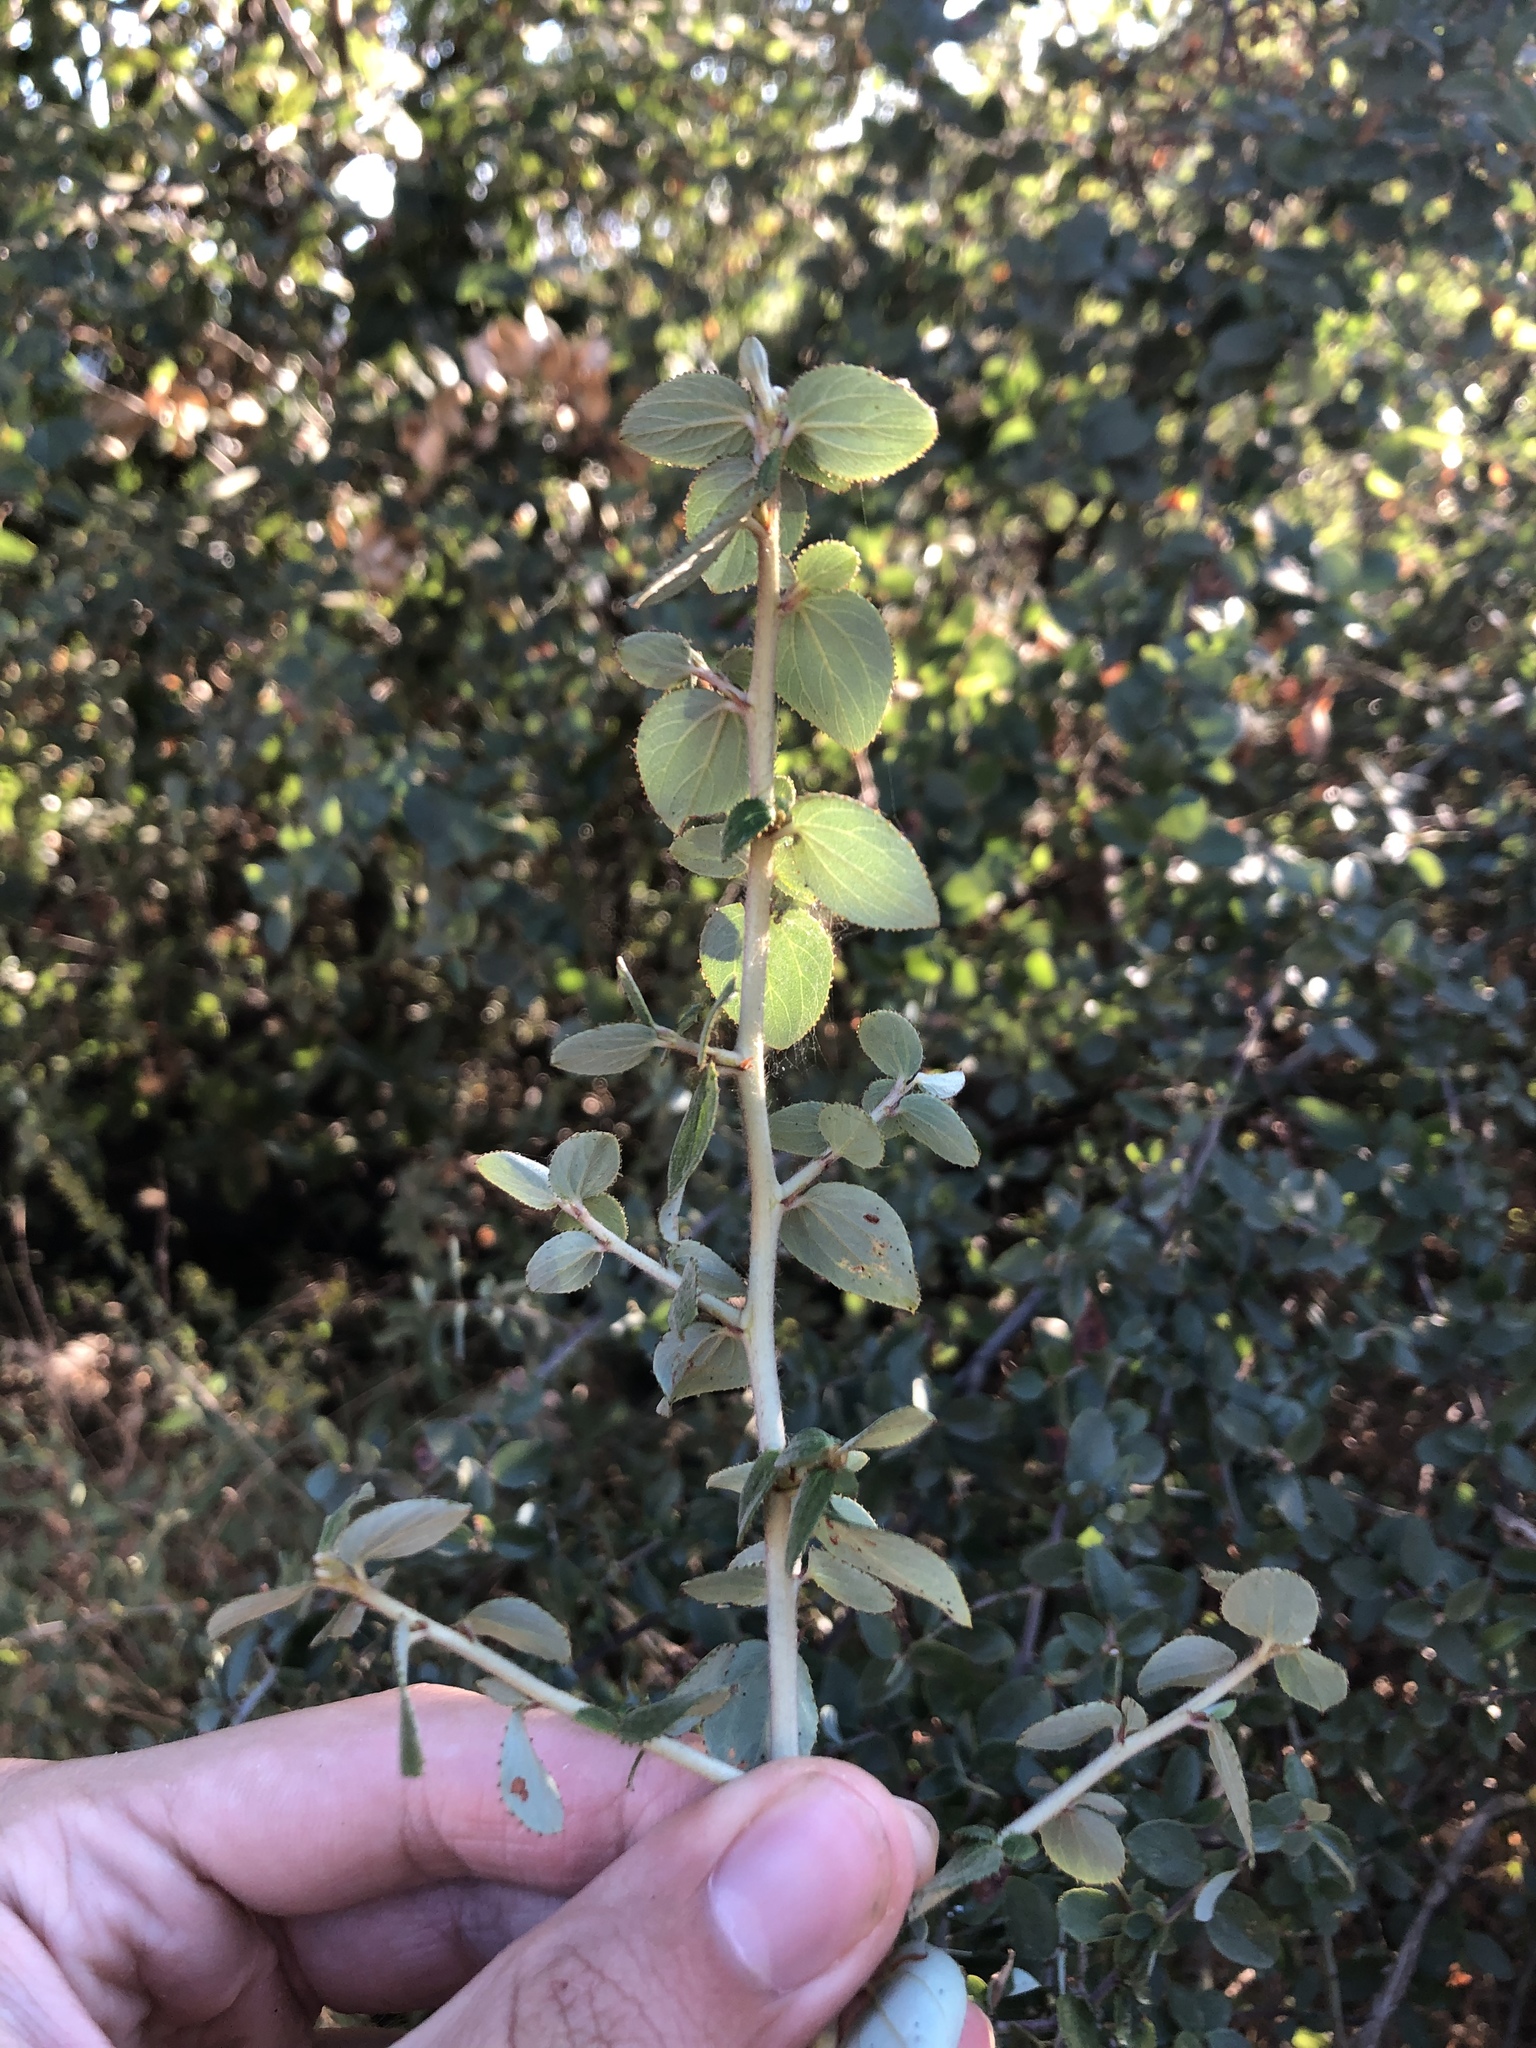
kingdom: Plantae
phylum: Tracheophyta
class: Magnoliopsida
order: Rosales
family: Rhamnaceae
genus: Ceanothus
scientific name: Ceanothus oliganthus
